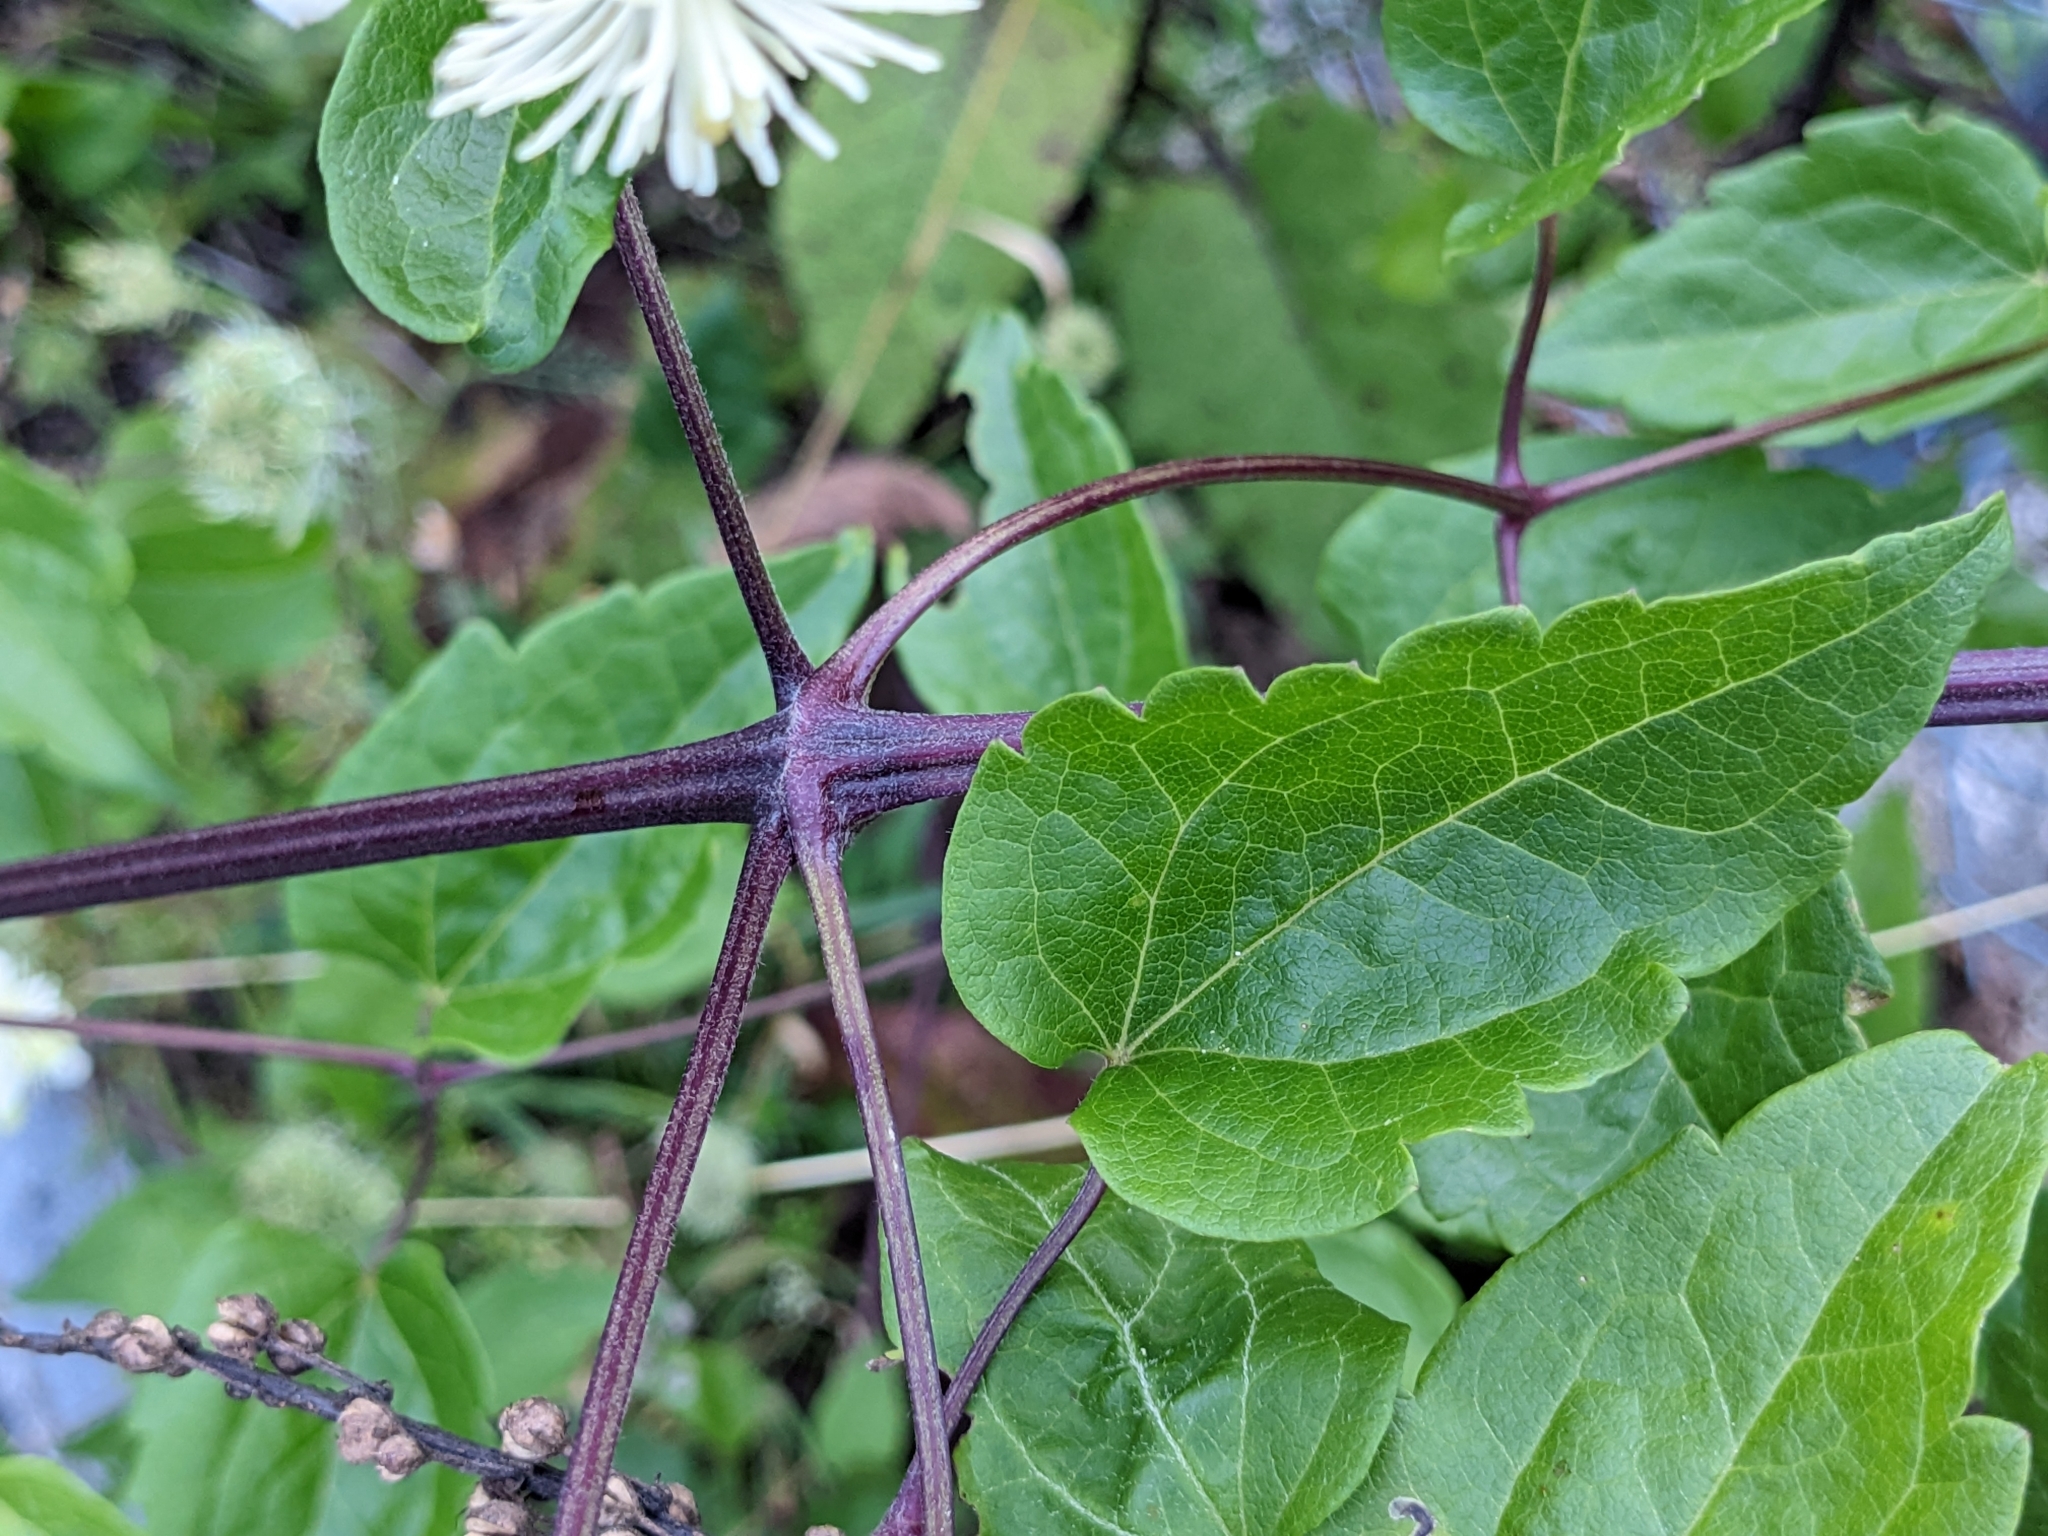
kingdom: Plantae
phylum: Tracheophyta
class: Magnoliopsida
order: Ranunculales
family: Ranunculaceae
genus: Clematis
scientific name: Clematis vitalba
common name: Evergreen clematis
